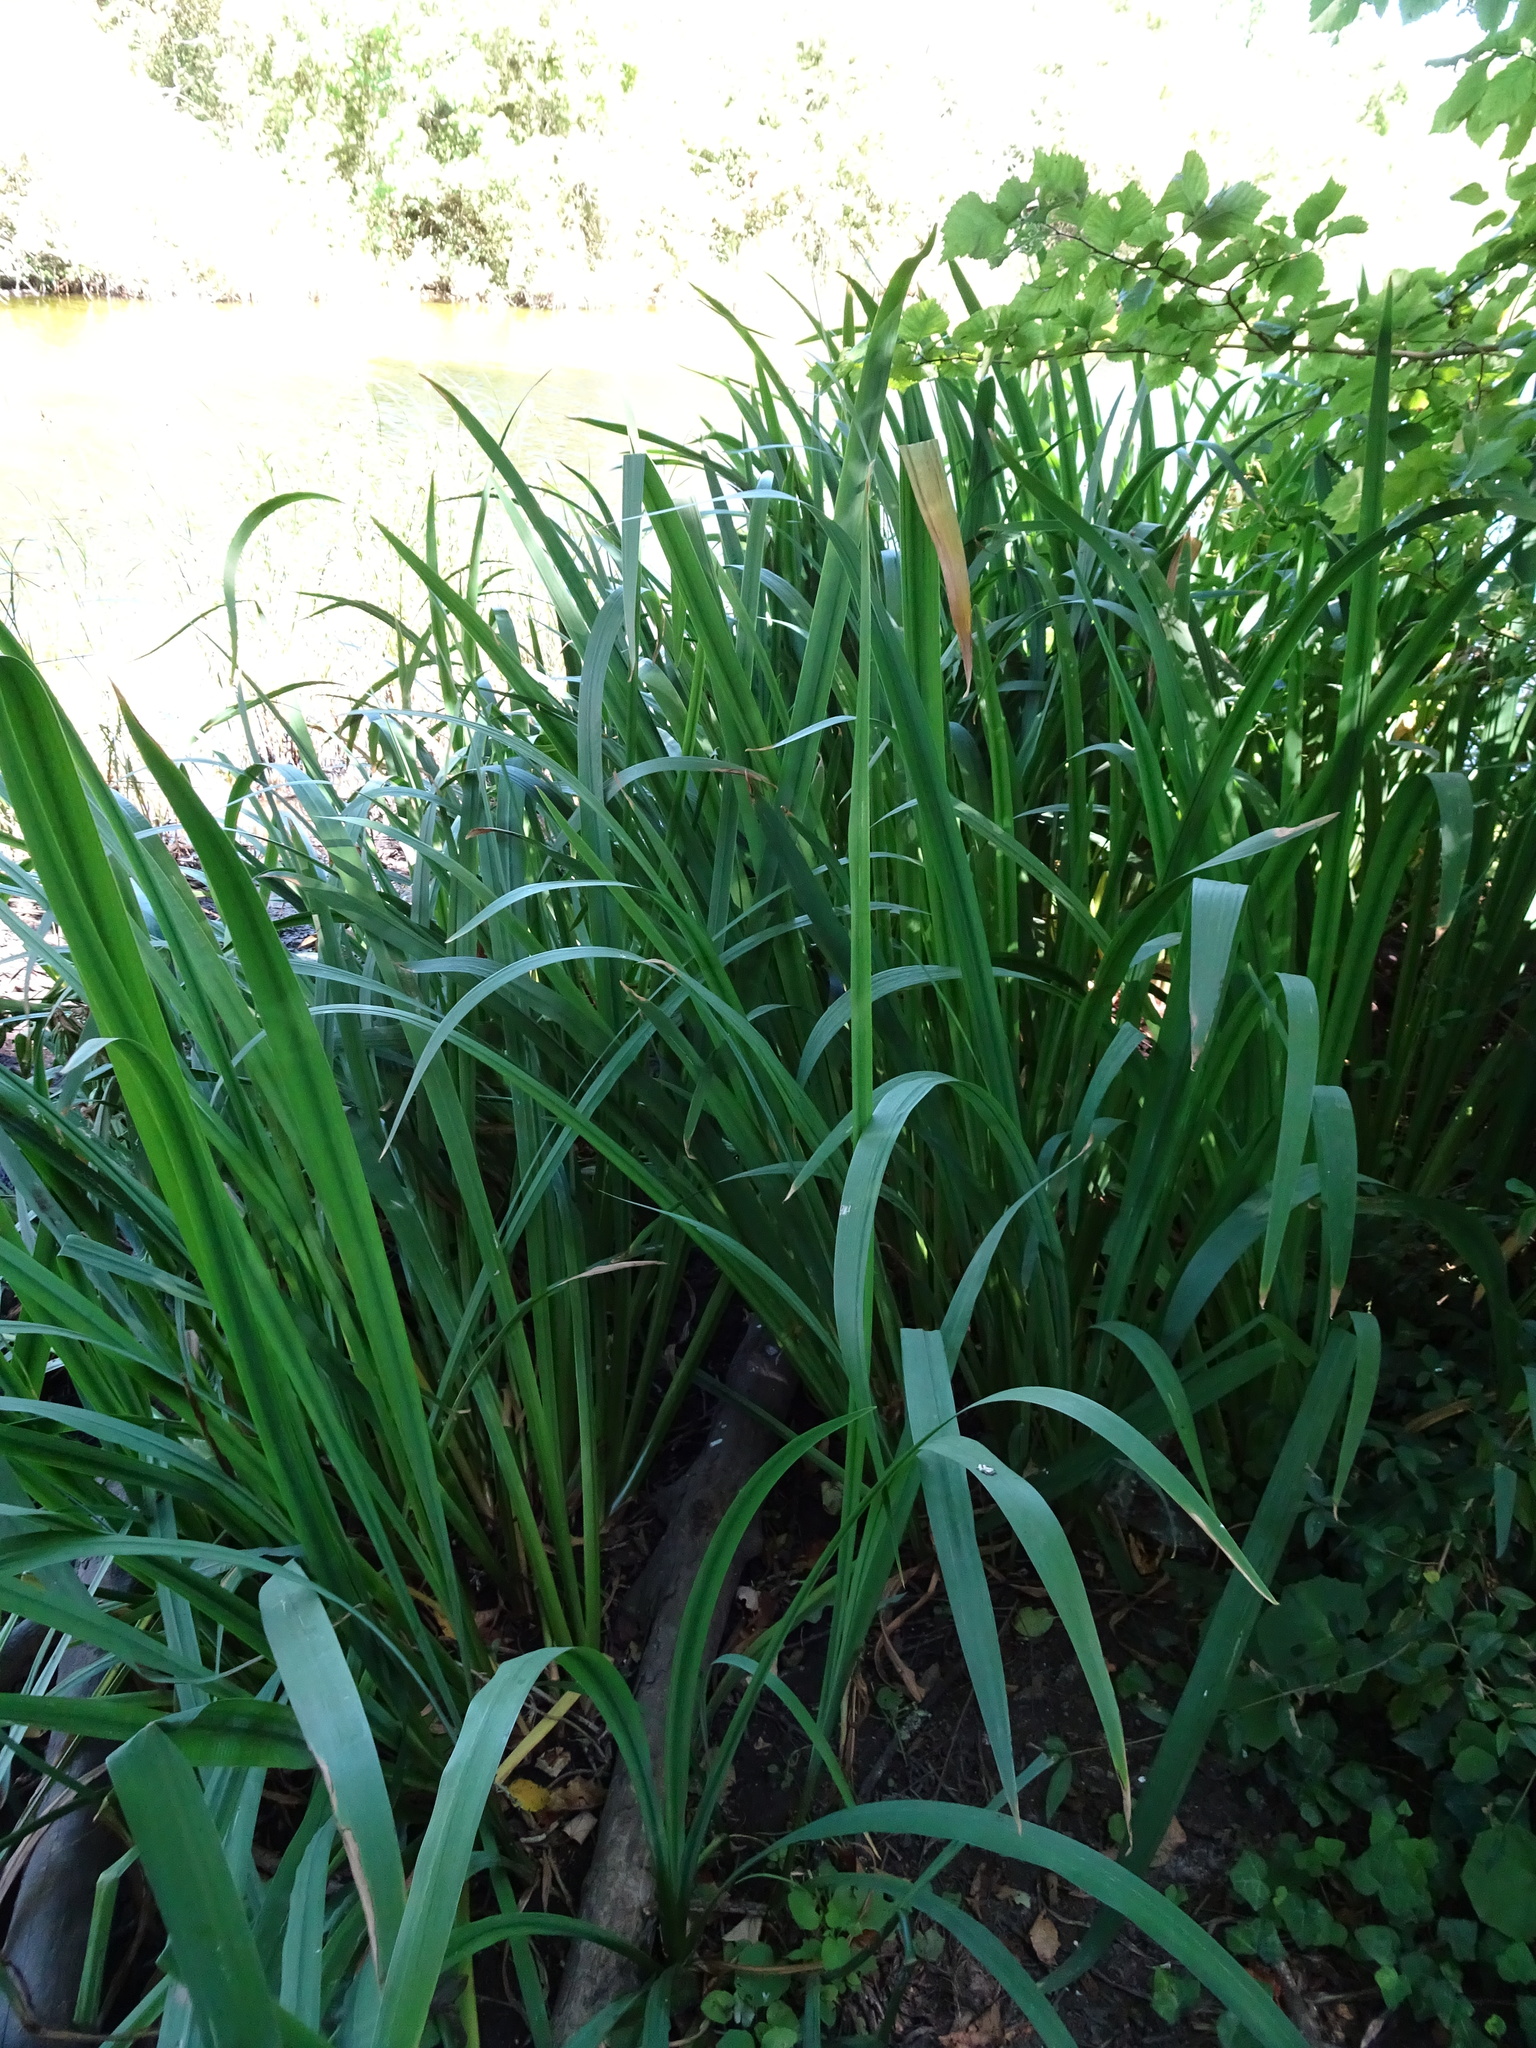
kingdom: Plantae
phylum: Tracheophyta
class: Liliopsida
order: Asparagales
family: Iridaceae
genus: Iris
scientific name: Iris pseudacorus
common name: Yellow flag
